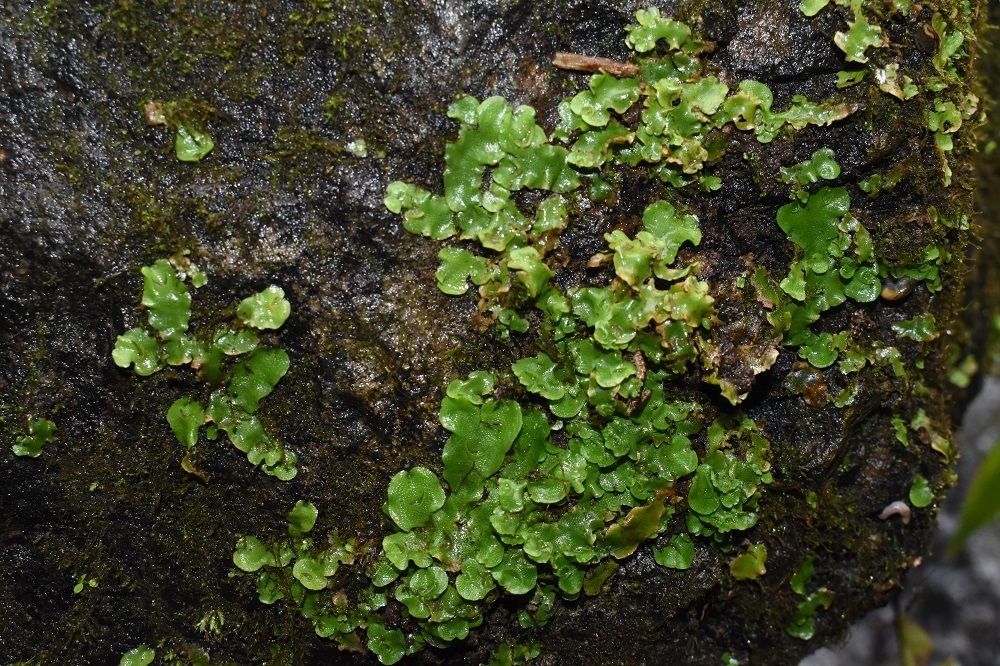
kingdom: Plantae
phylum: Marchantiophyta
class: Marchantiopsida
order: Lunulariales
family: Lunulariaceae
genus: Lunularia
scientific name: Lunularia cruciata
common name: Crescent-cup liverwort
